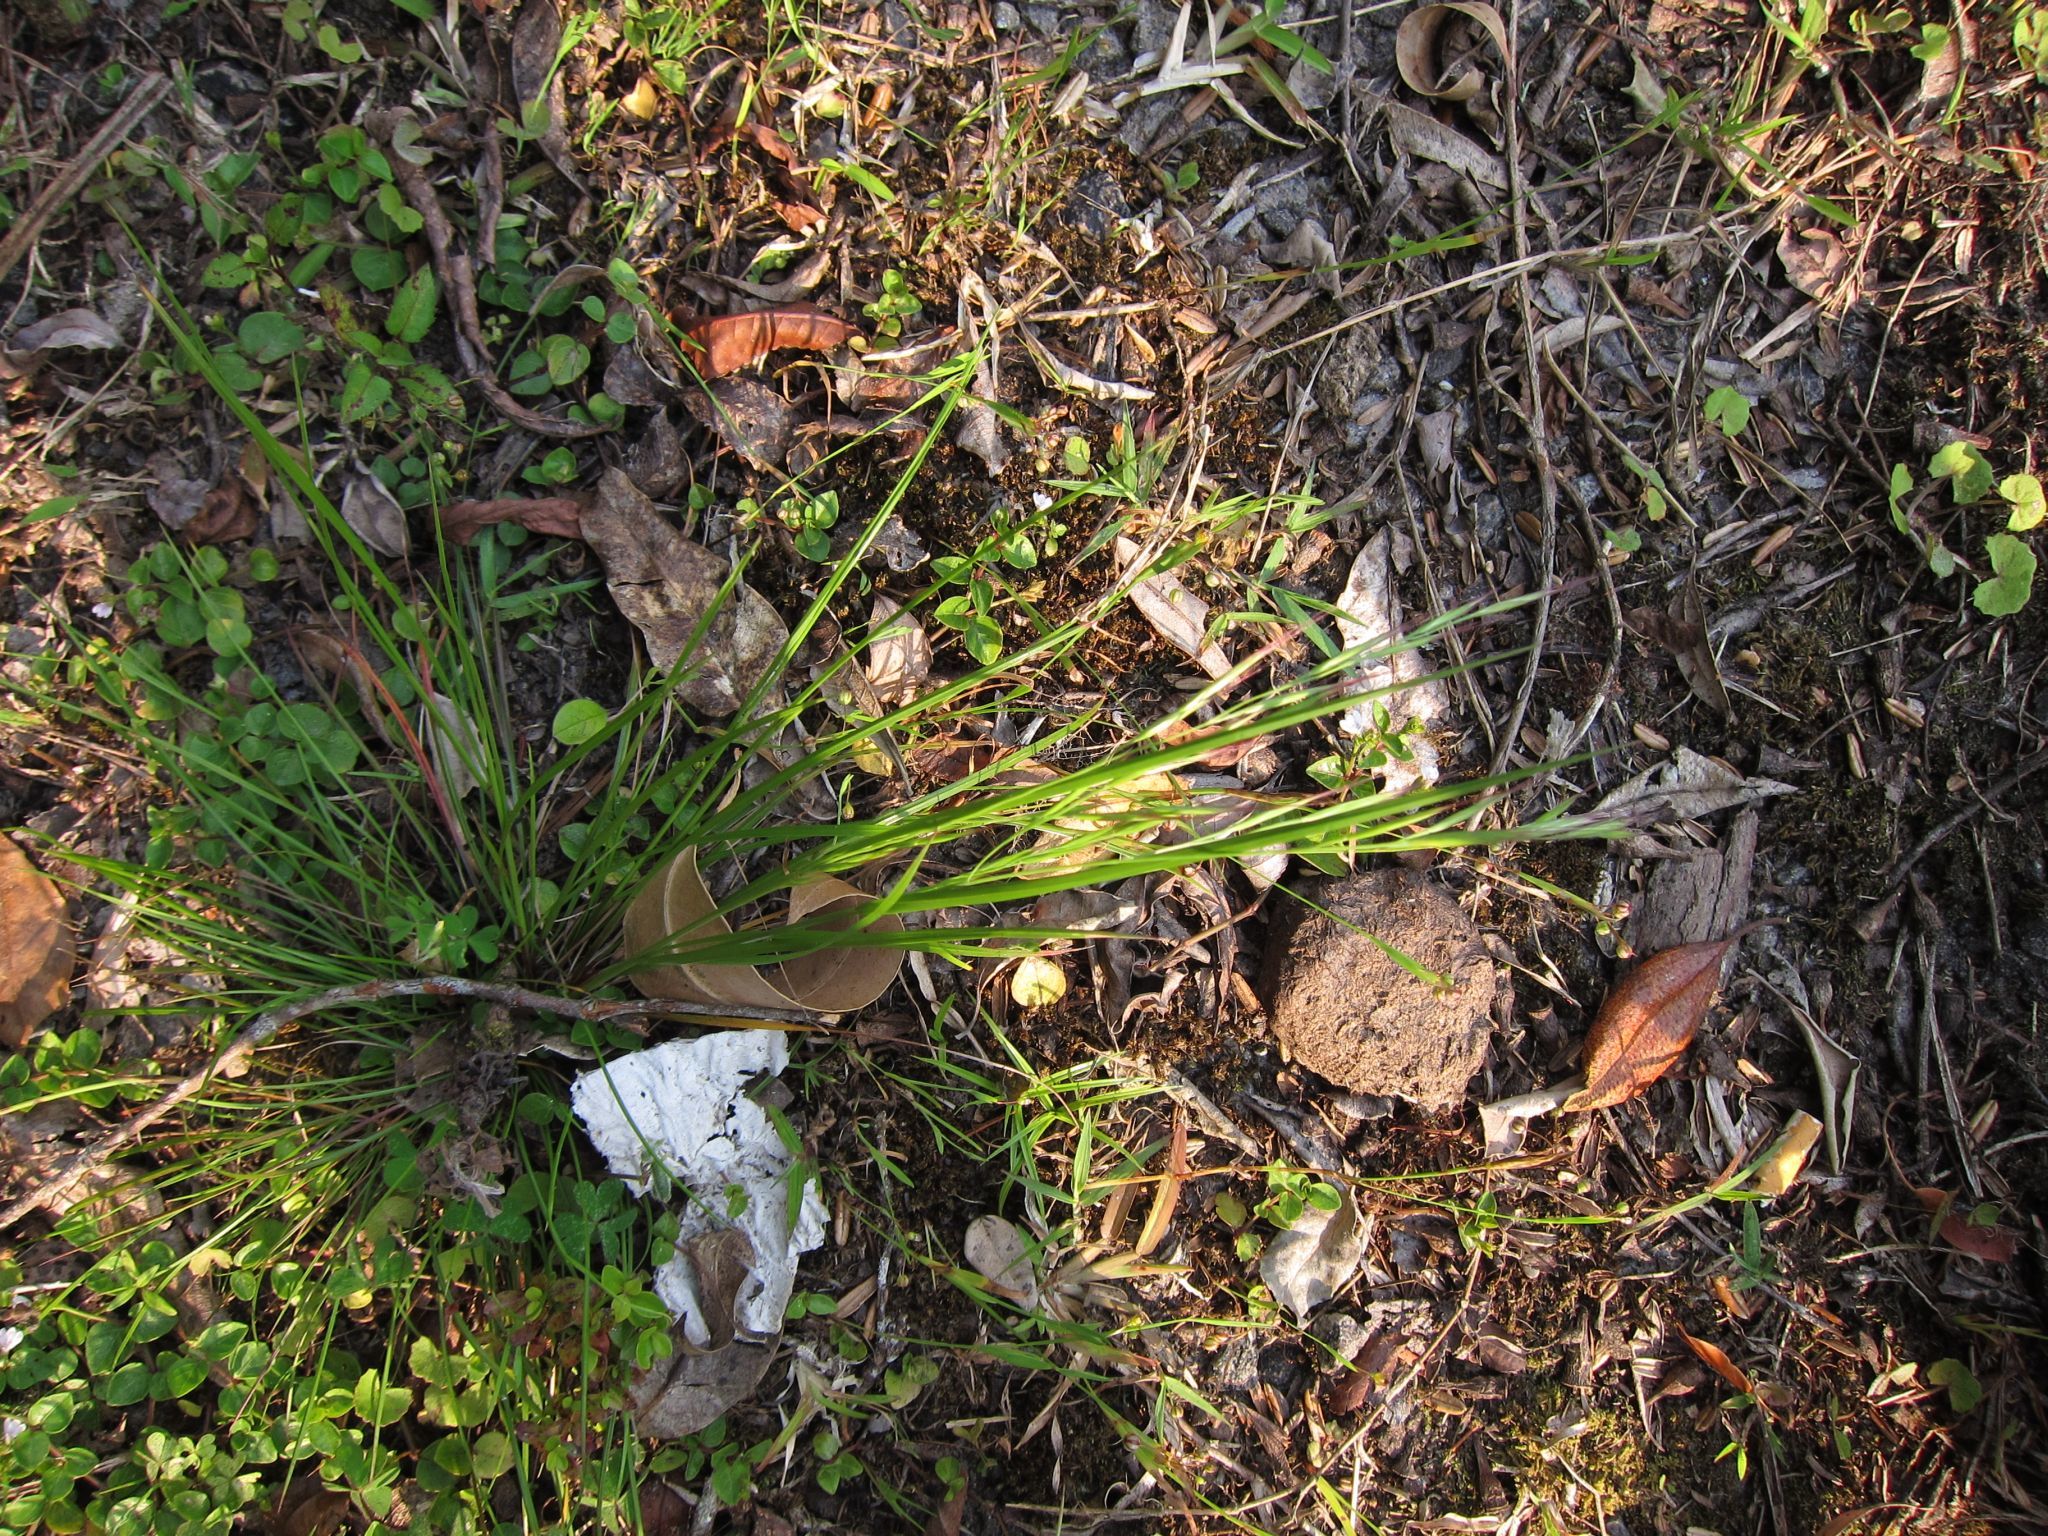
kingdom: Plantae
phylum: Tracheophyta
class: Liliopsida
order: Poales
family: Poaceae
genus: Brachypodium
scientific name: Brachypodium perrieri
